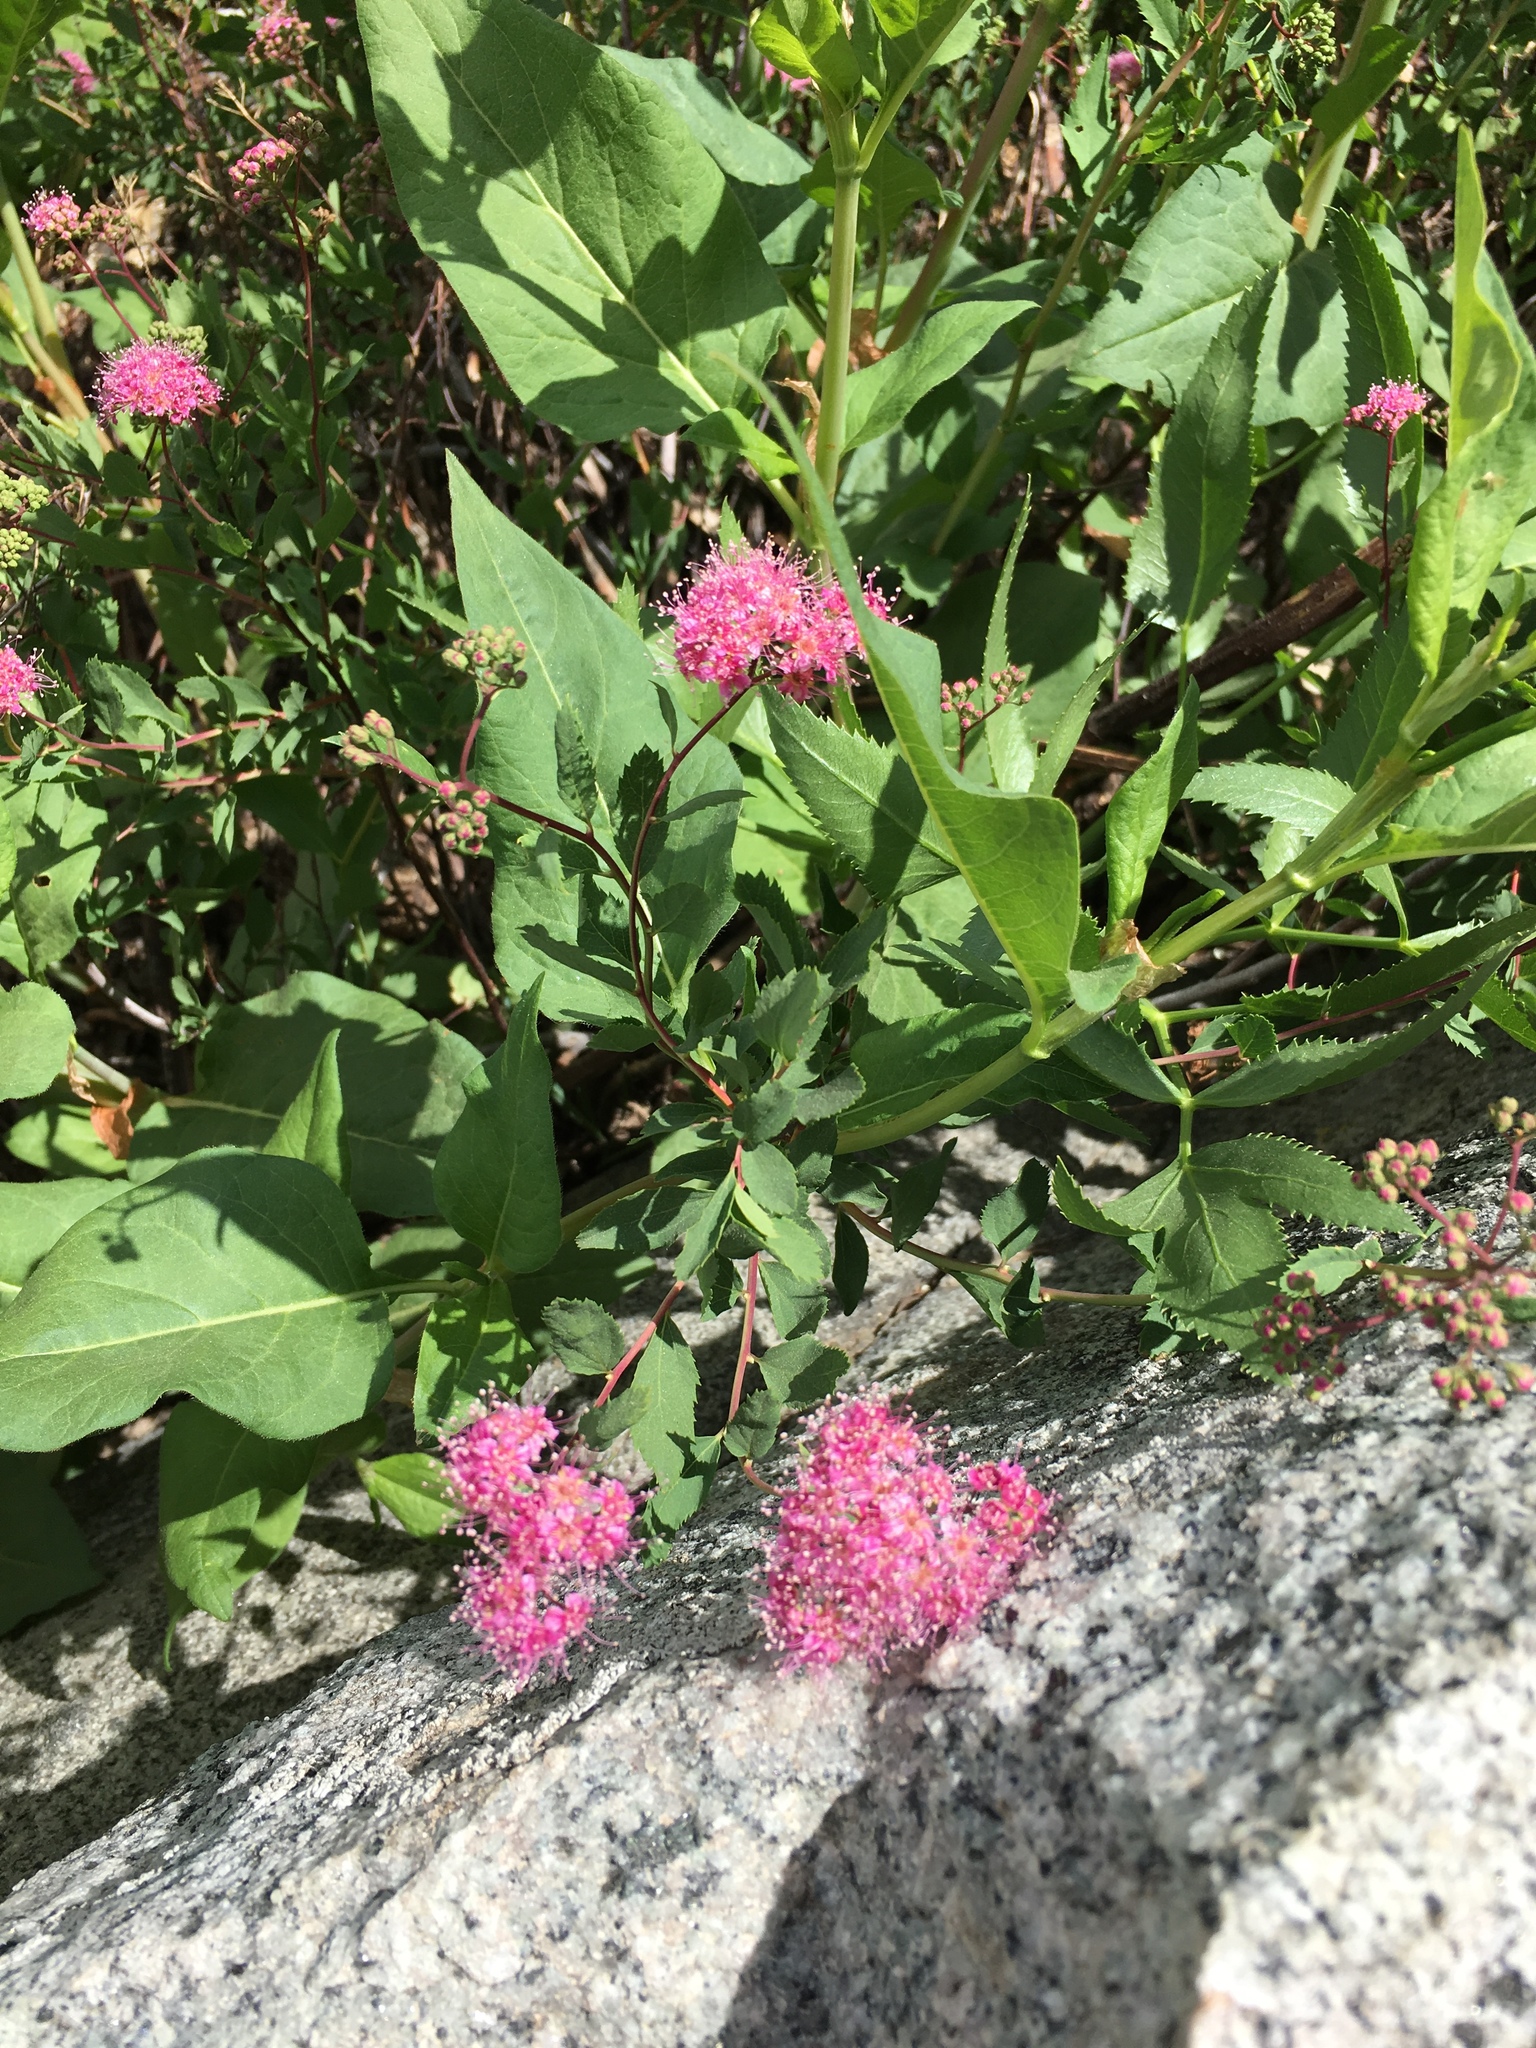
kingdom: Plantae
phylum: Tracheophyta
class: Magnoliopsida
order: Rosales
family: Rosaceae
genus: Spiraea
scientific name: Spiraea splendens
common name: Subalpine meadowsweet
